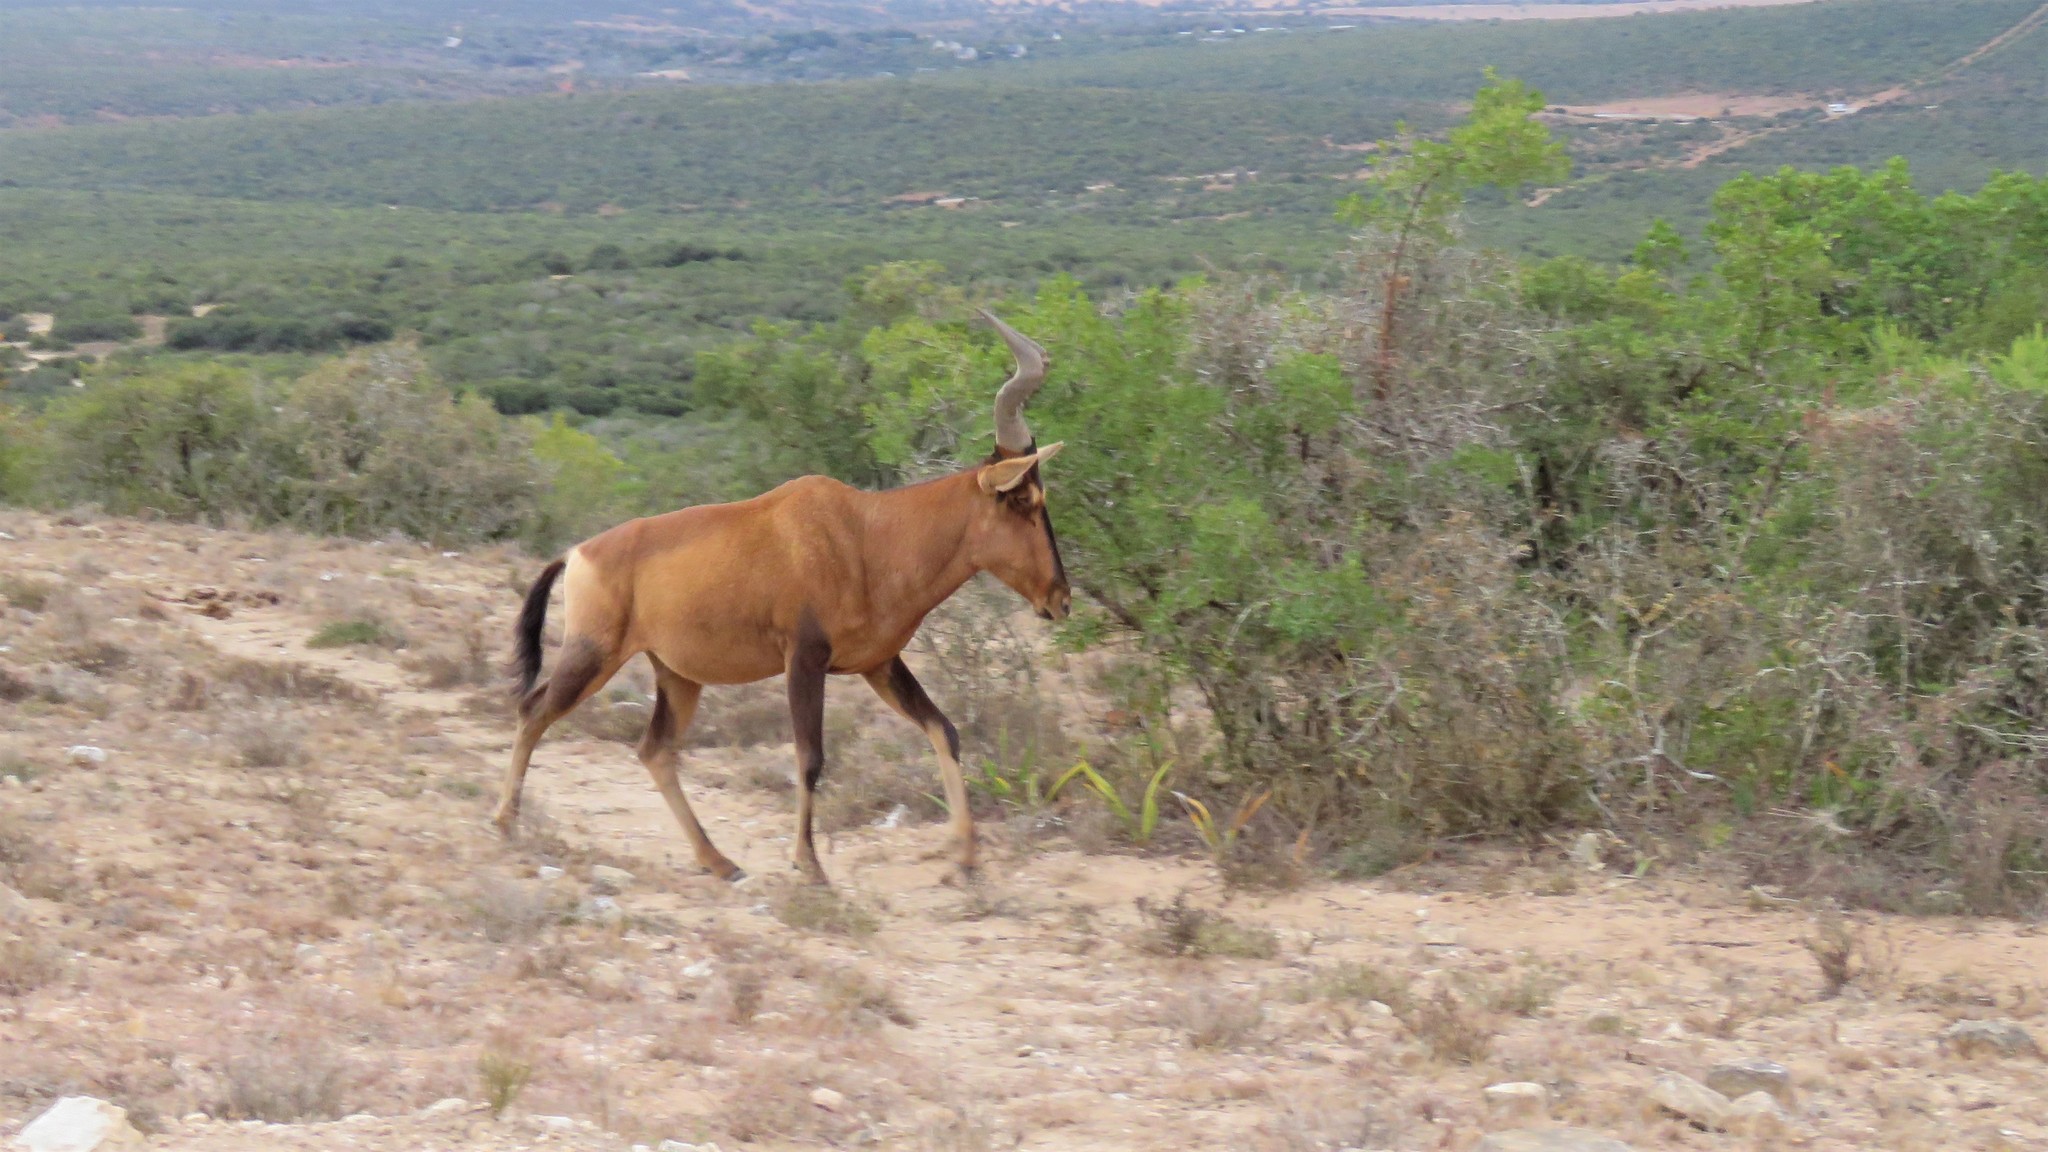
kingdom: Animalia
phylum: Chordata
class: Mammalia
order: Artiodactyla
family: Bovidae
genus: Alcelaphus
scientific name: Alcelaphus caama
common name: Red hartebeest
